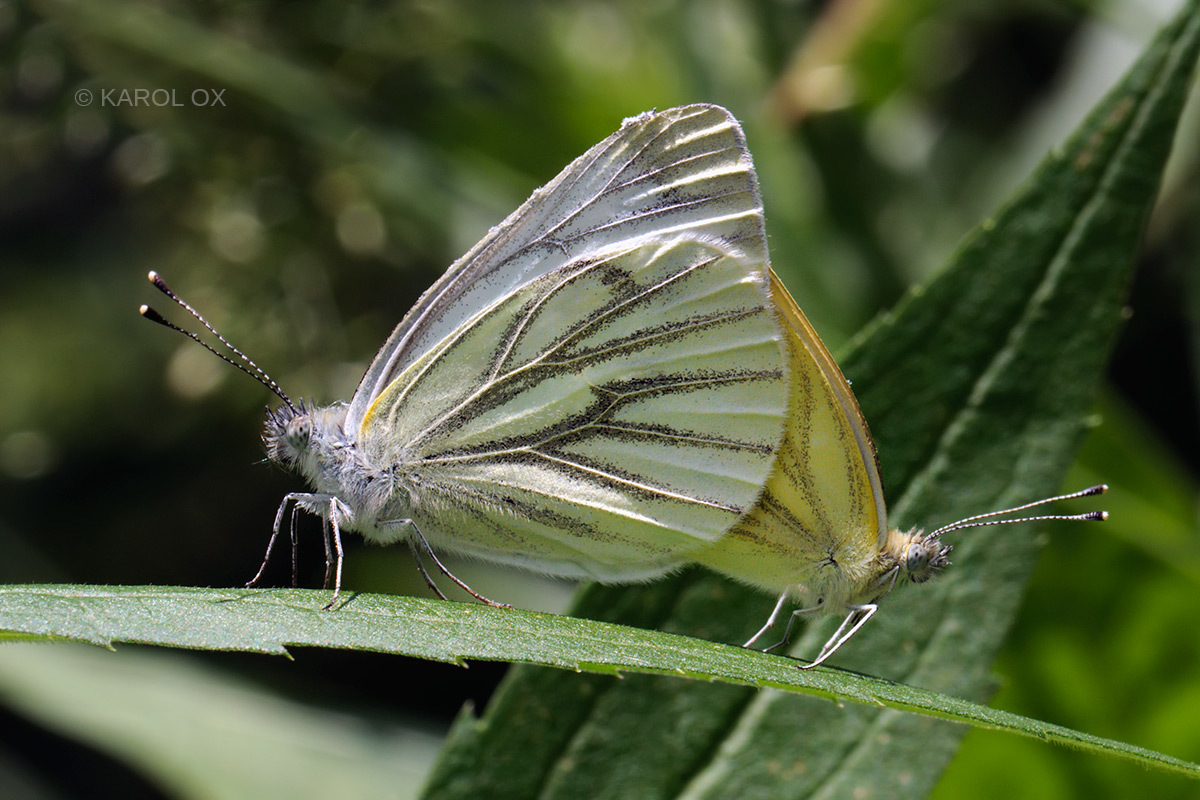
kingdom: Animalia
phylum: Arthropoda
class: Insecta
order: Lepidoptera
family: Pieridae
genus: Pieris
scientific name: Pieris napi
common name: Green-veined white
